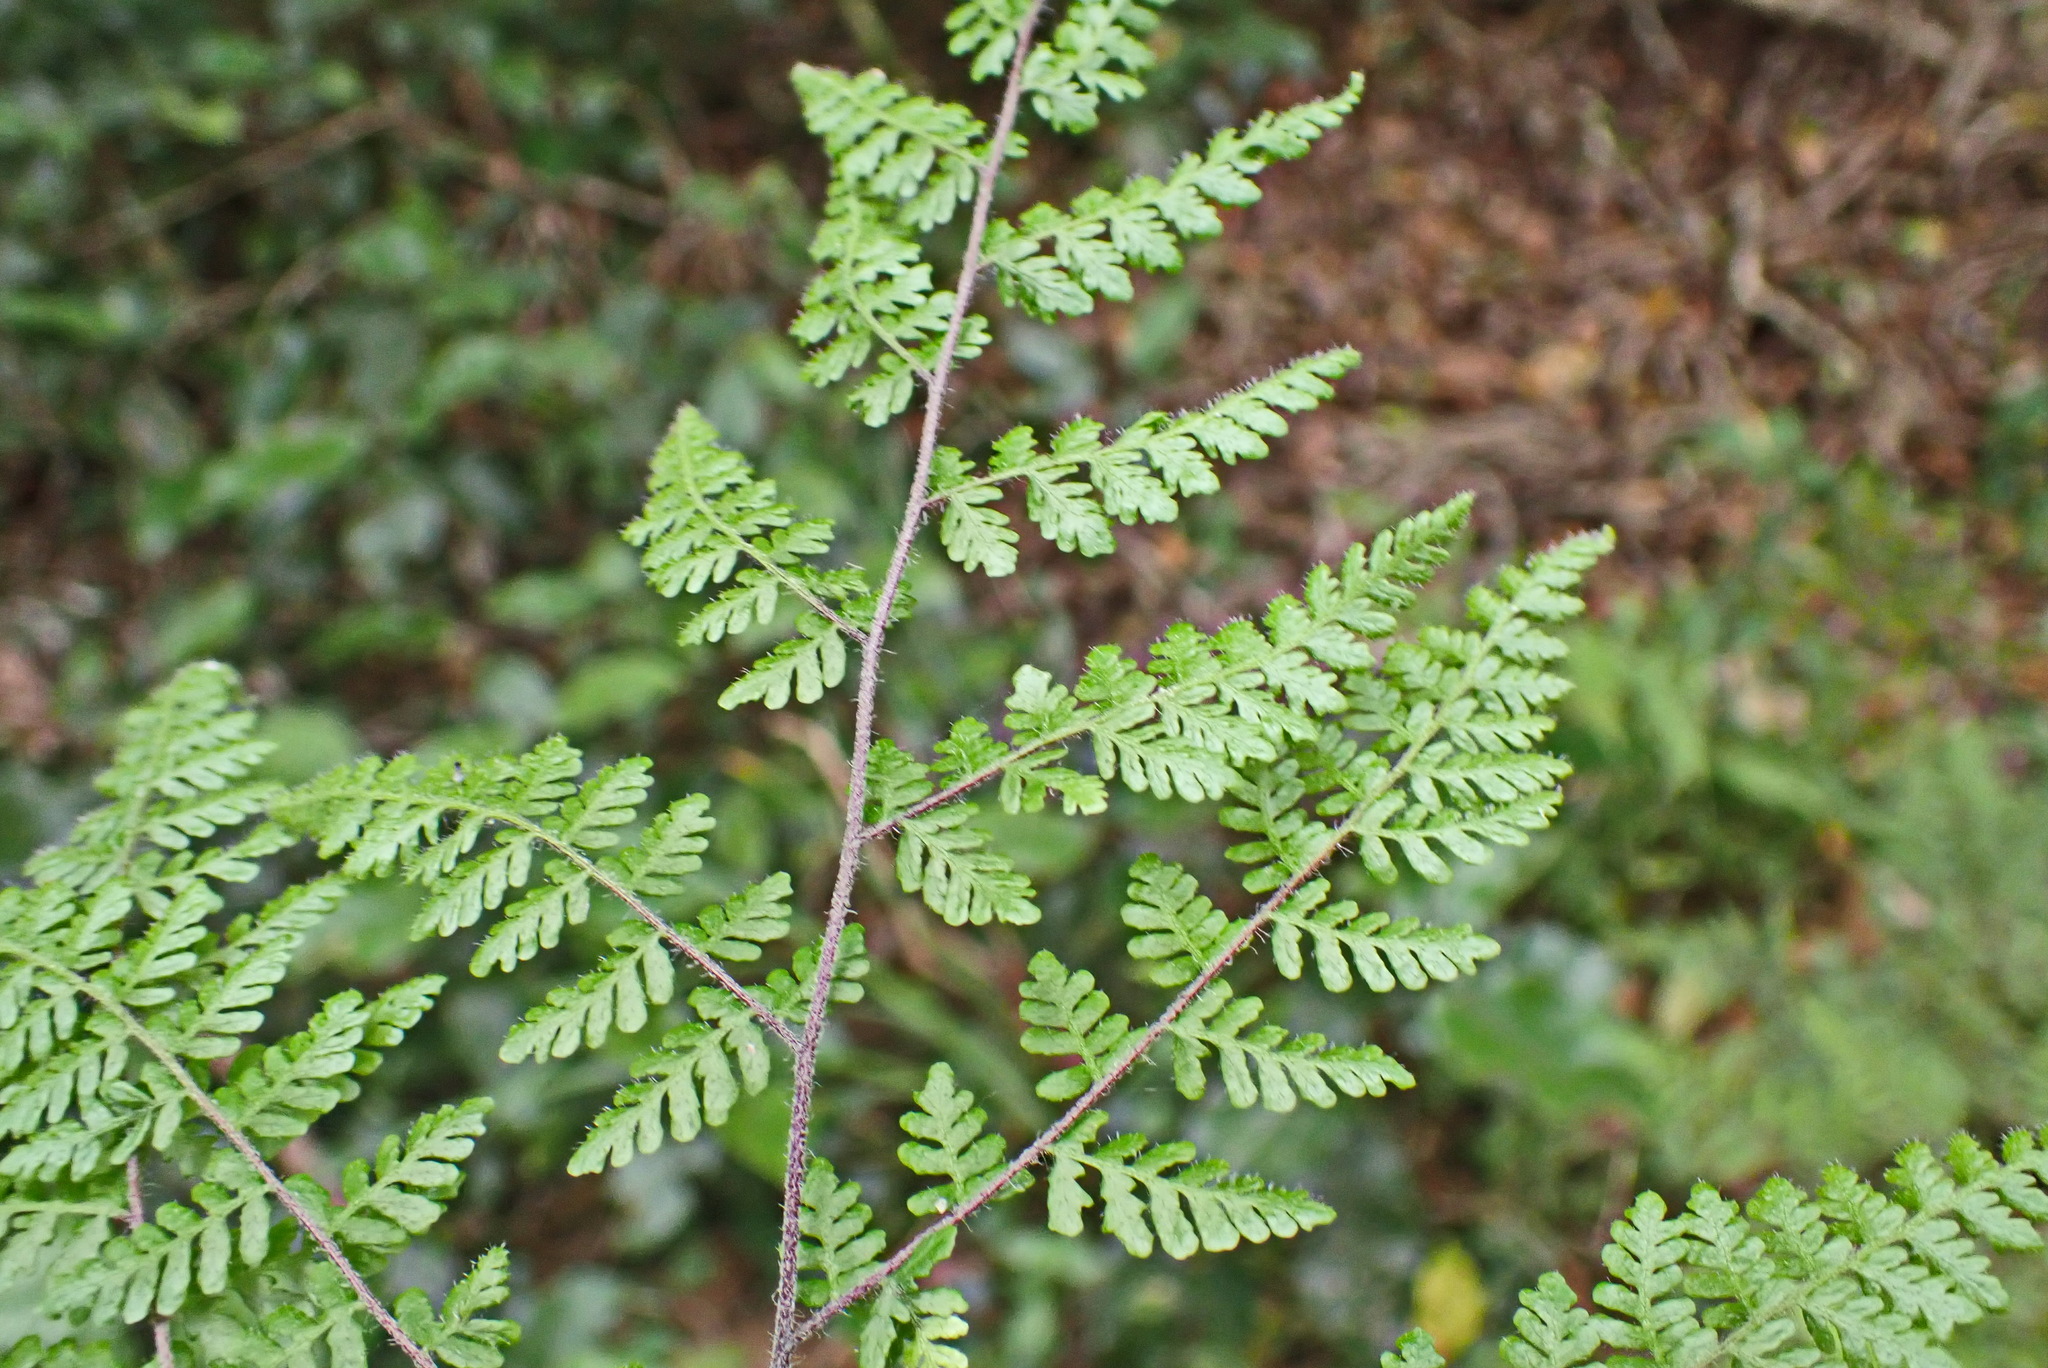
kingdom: Plantae
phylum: Tracheophyta
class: Polypodiopsida
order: Polypodiales
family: Pteridaceae
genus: Cheilanthes
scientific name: Cheilanthes bergiana
